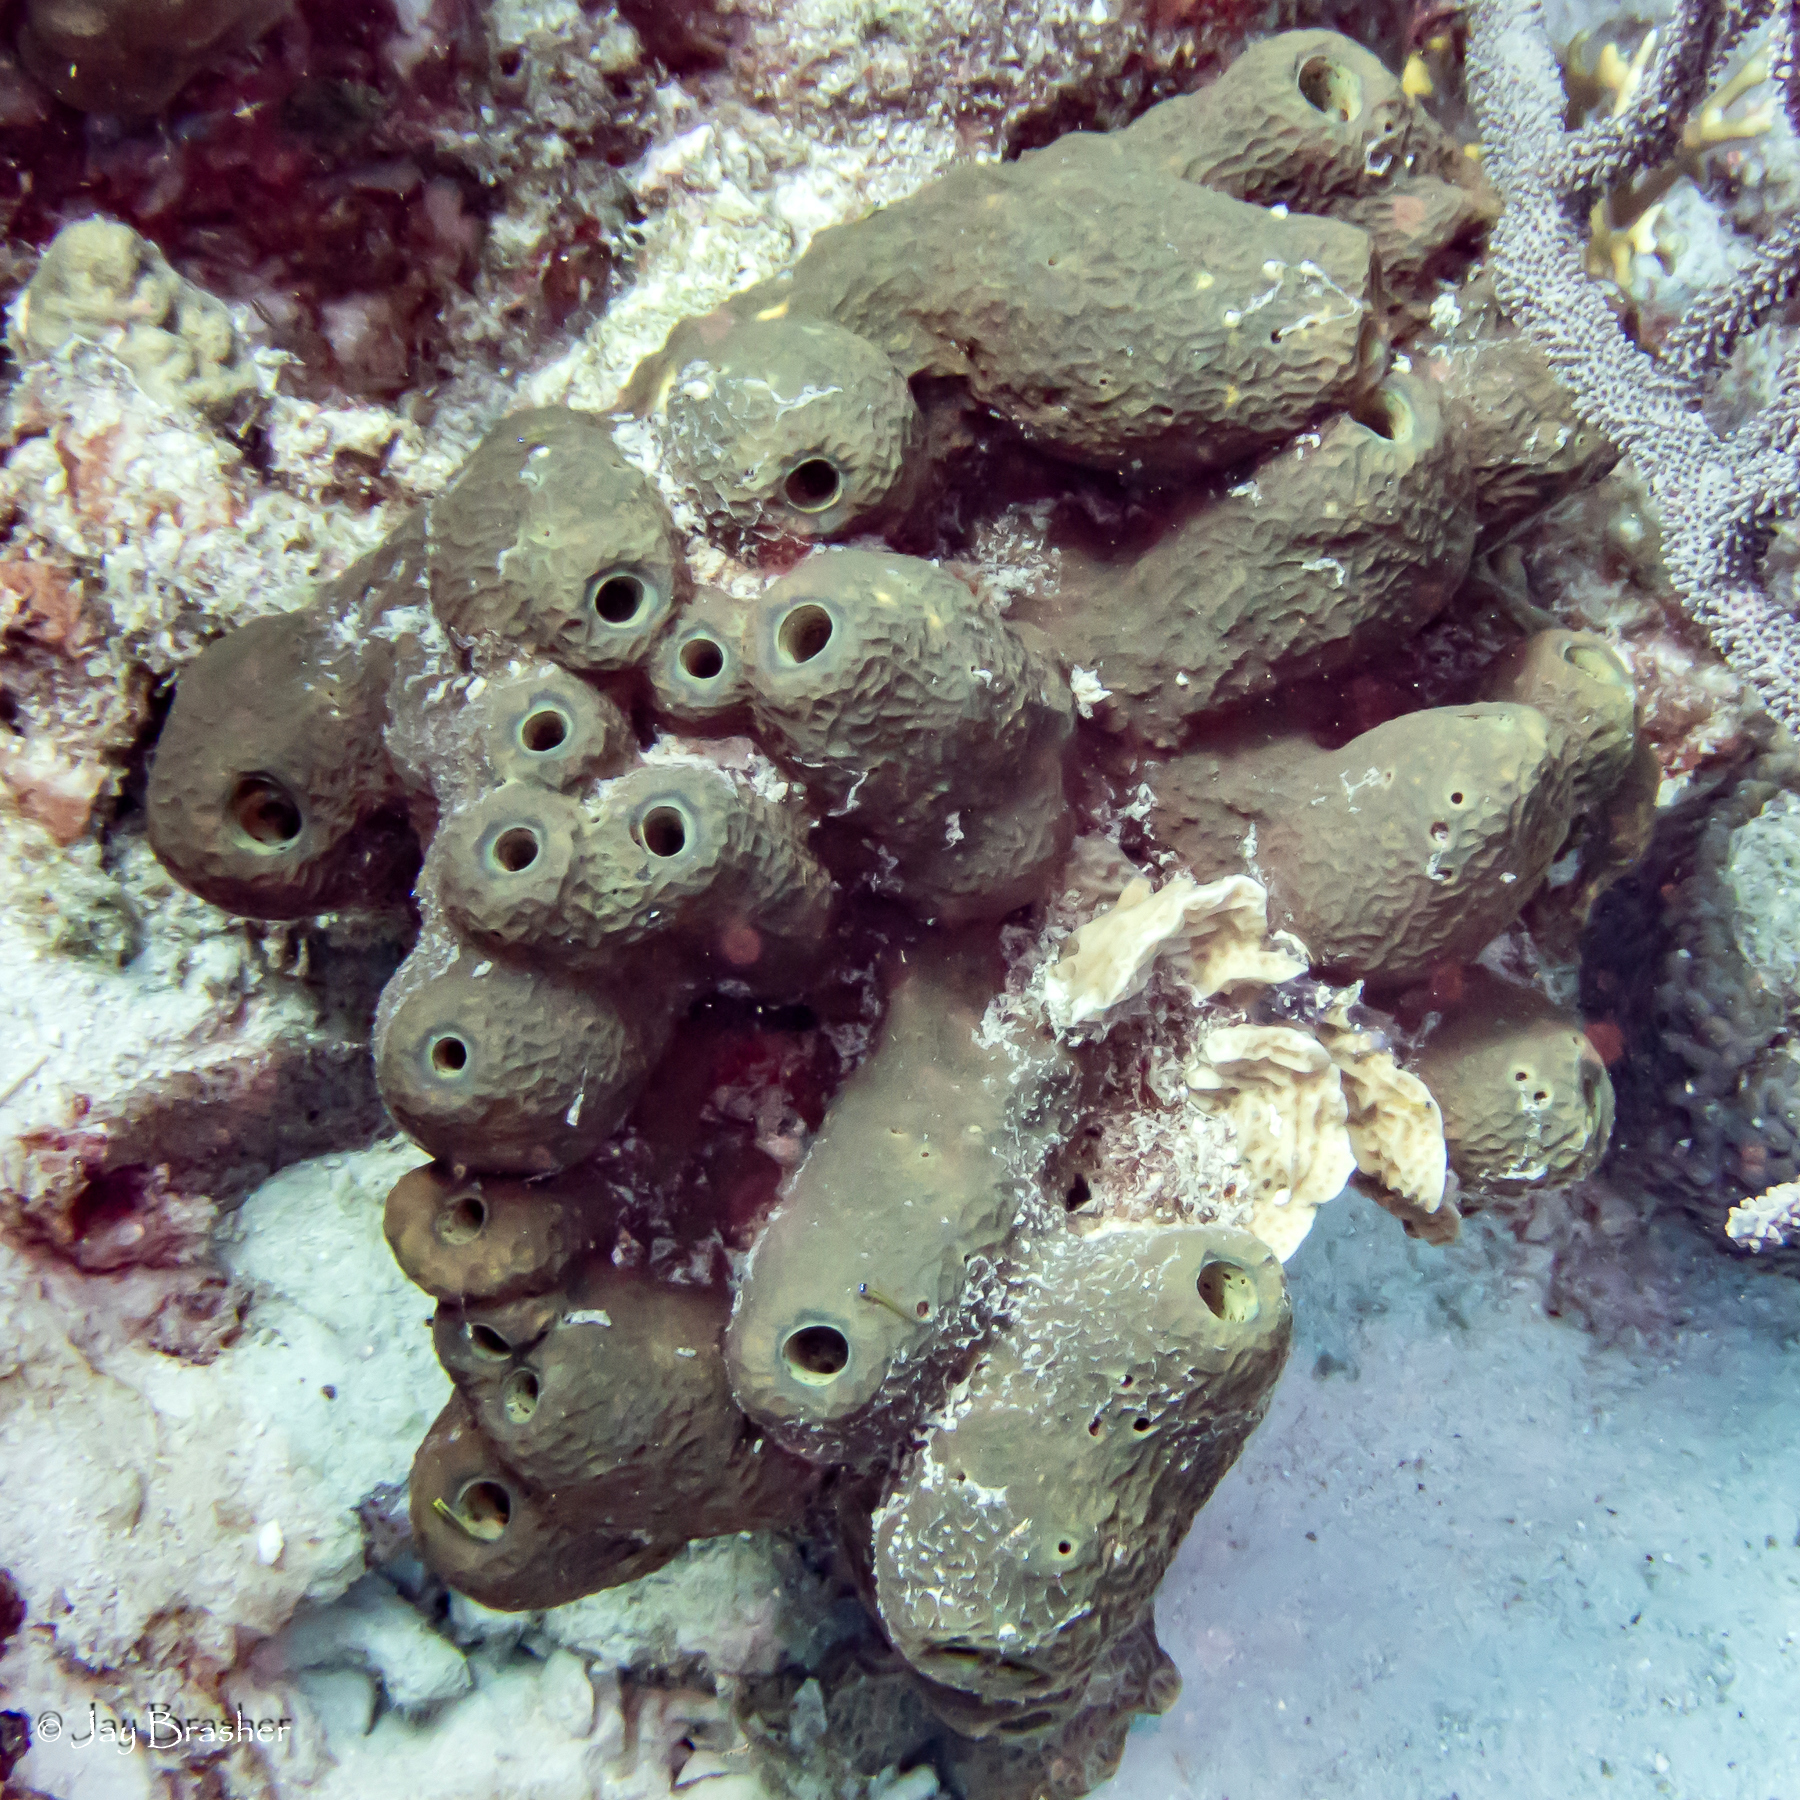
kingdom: Animalia
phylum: Porifera
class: Demospongiae
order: Verongiida
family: Aplysinidae
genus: Verongula
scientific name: Verongula reiswigi
